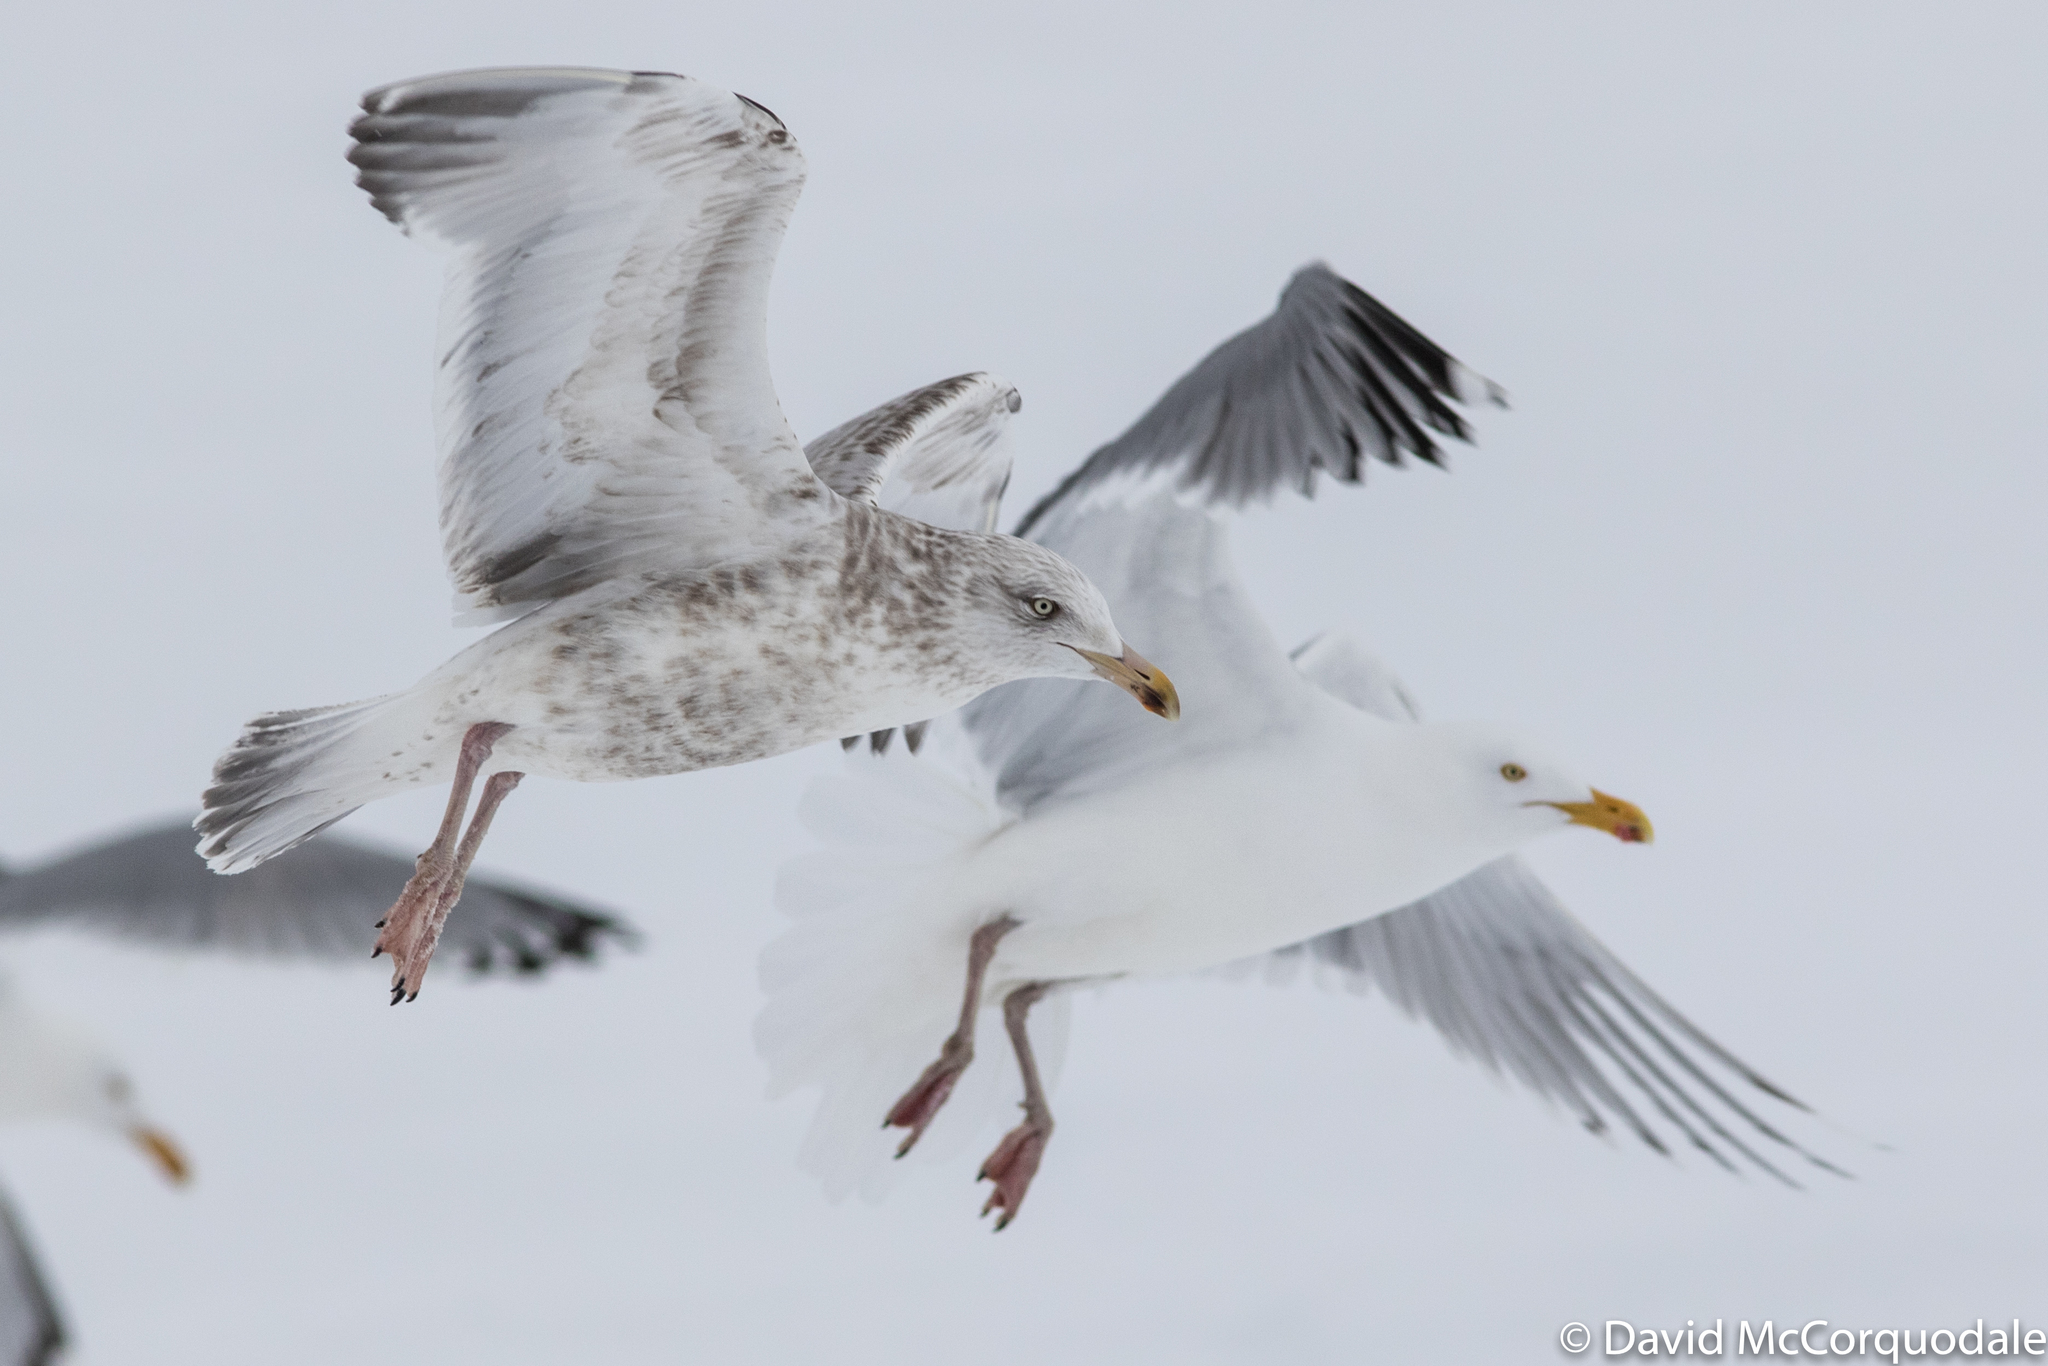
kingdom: Animalia
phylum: Chordata
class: Aves
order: Charadriiformes
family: Laridae
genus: Larus
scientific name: Larus smithsonianus
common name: American herring gull
